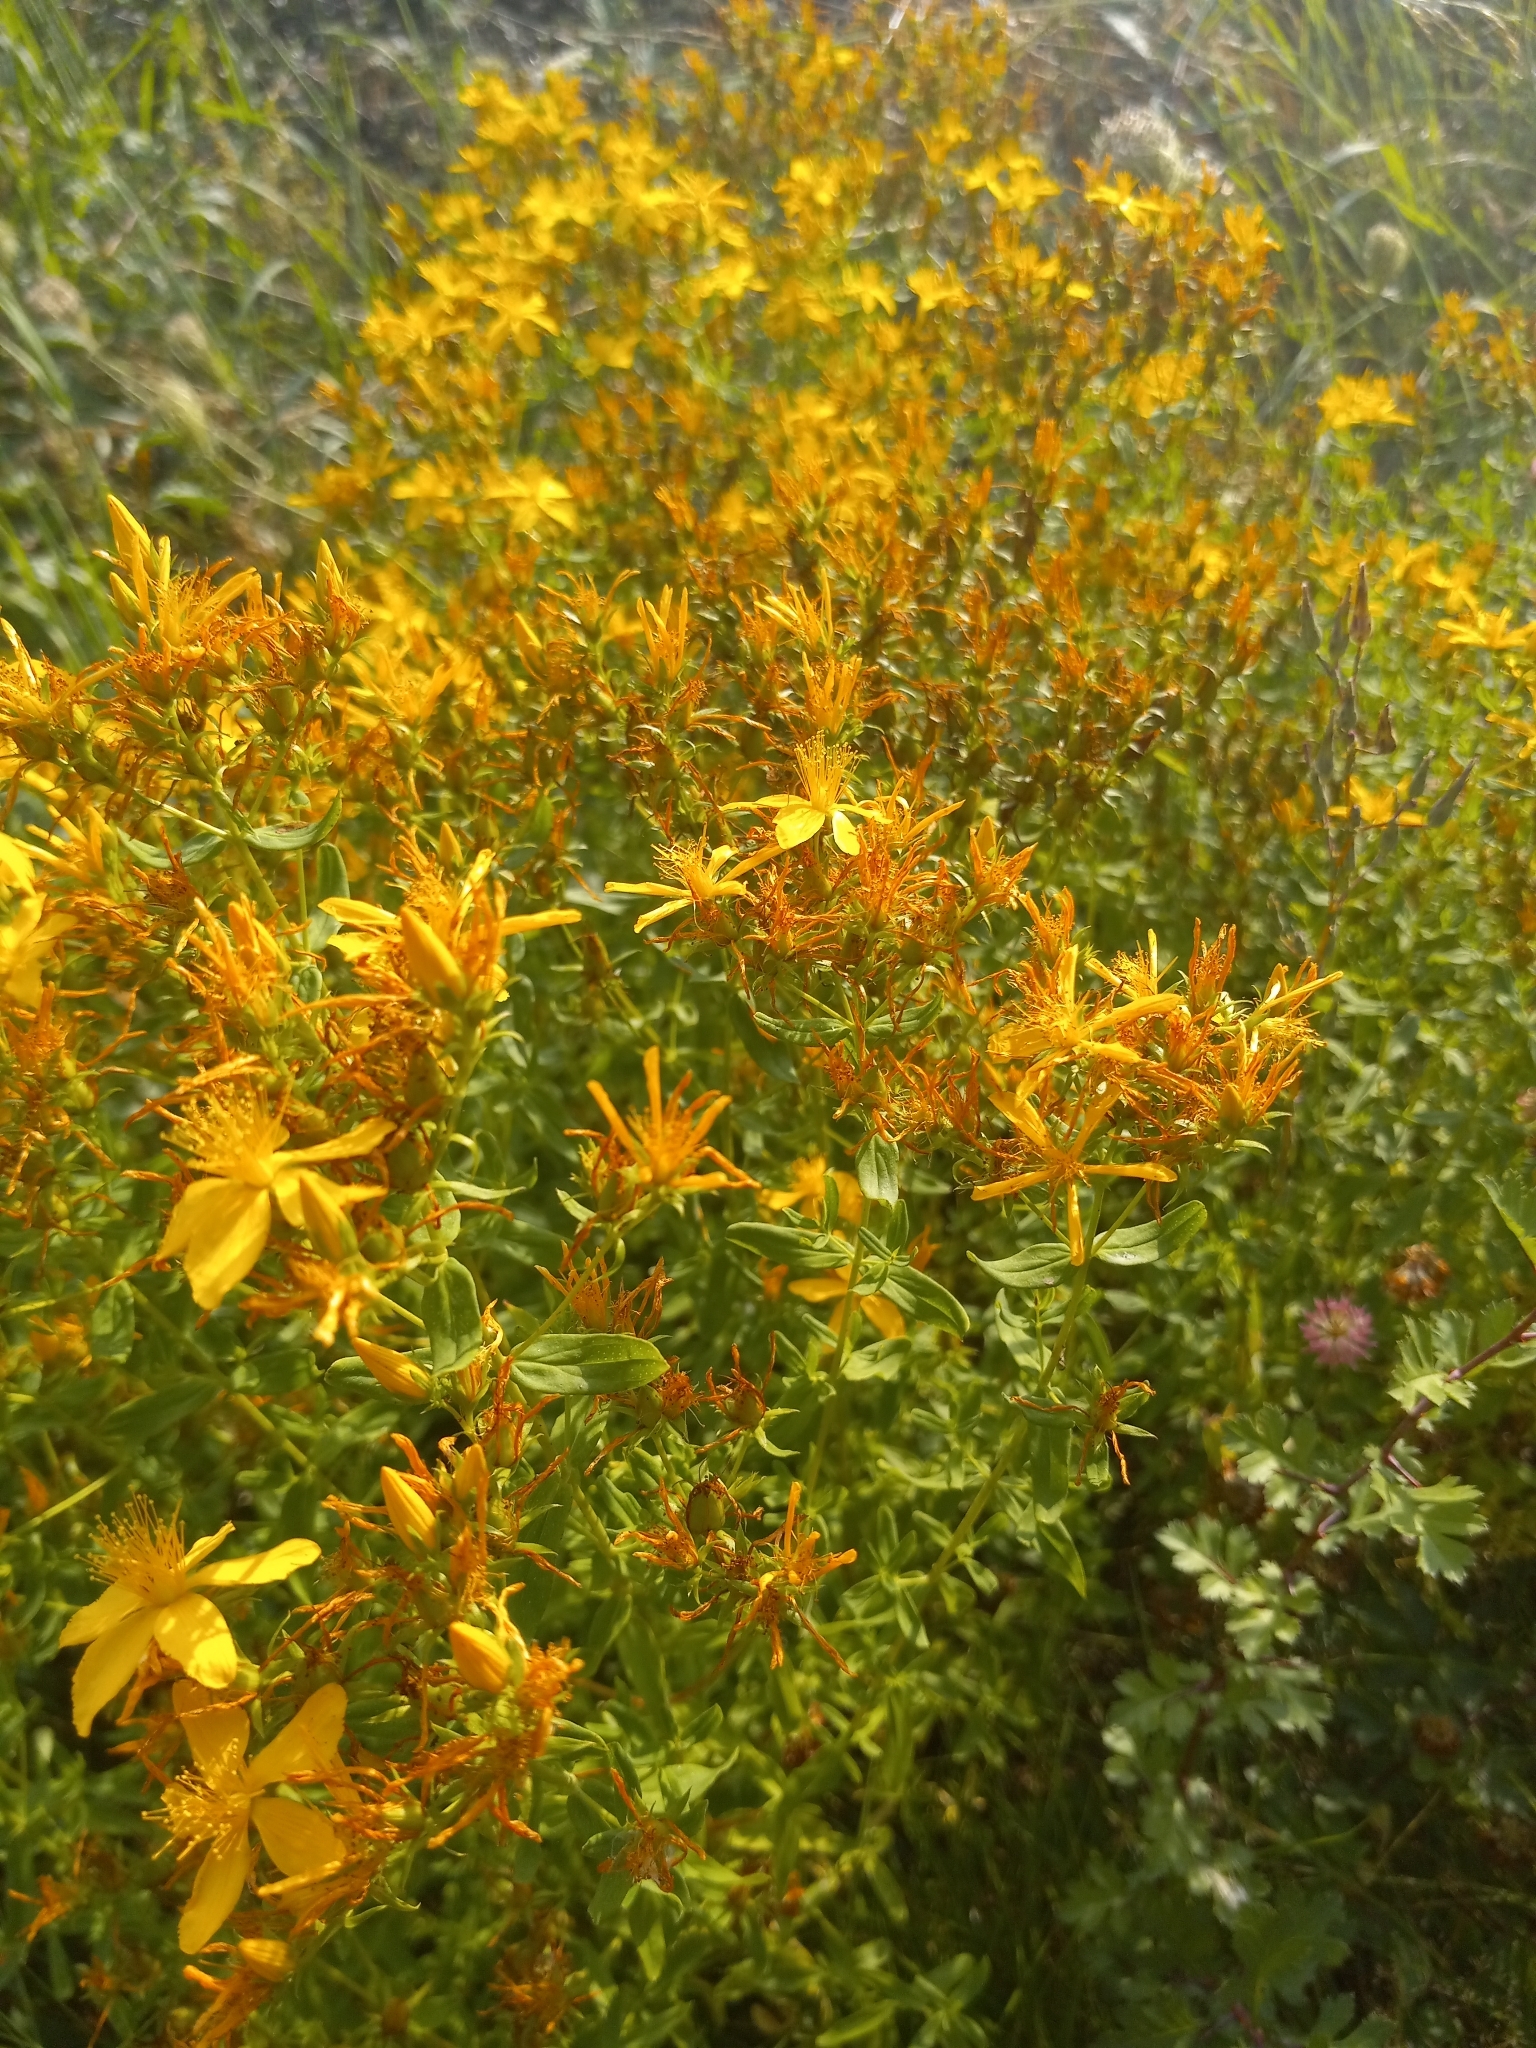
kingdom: Plantae
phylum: Tracheophyta
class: Magnoliopsida
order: Malpighiales
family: Hypericaceae
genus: Hypericum
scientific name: Hypericum perforatum
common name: Common st. johnswort
